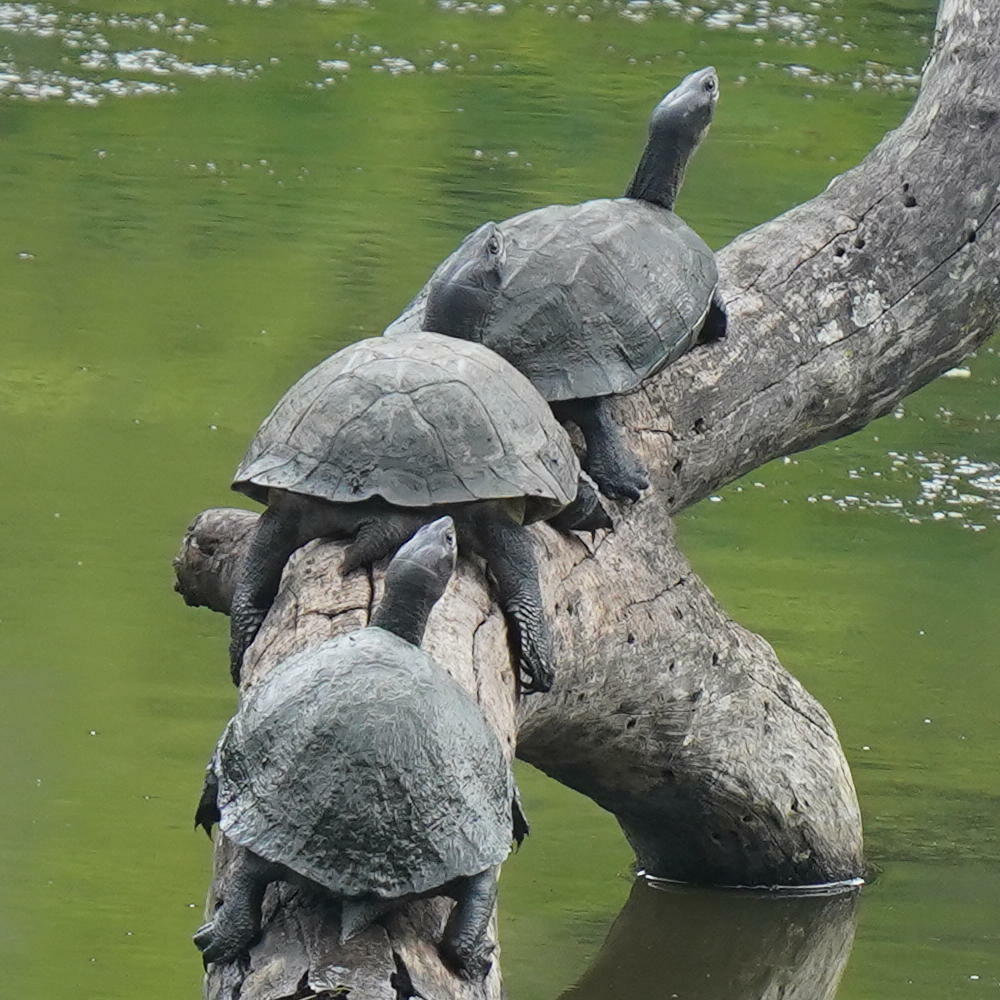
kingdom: Animalia
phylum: Chordata
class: Testudines
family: Geoemydidae
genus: Melanochelys
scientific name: Melanochelys trijuga
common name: Indian black turtle
